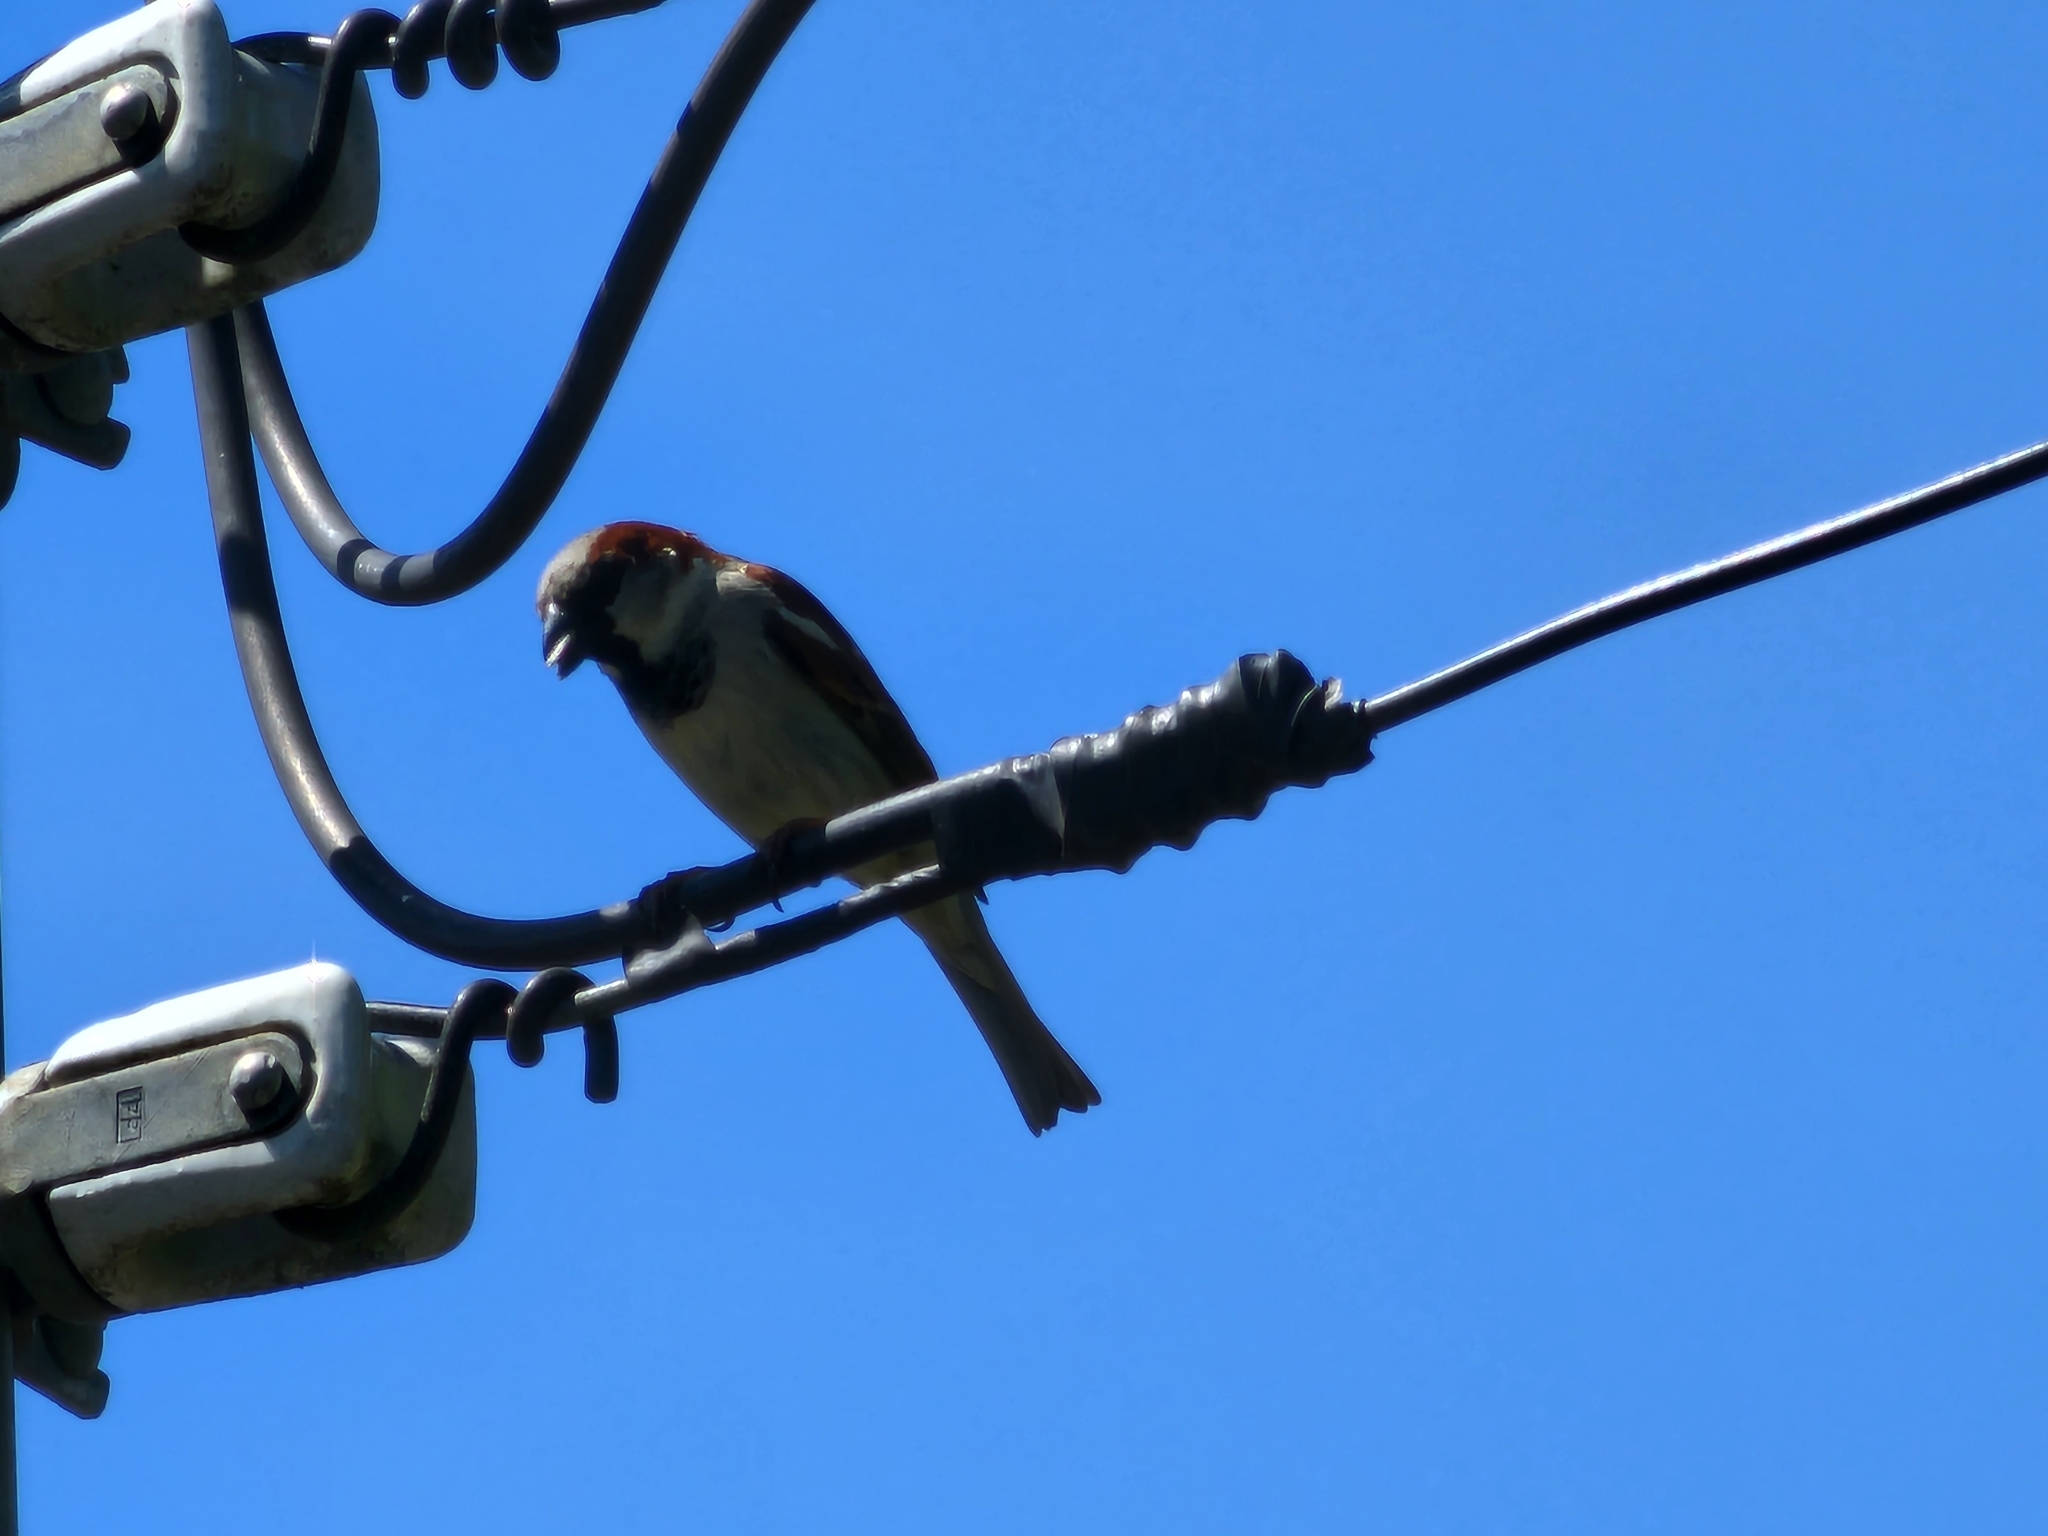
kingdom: Animalia
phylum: Chordata
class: Aves
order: Passeriformes
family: Passeridae
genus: Passer
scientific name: Passer domesticus
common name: House sparrow
